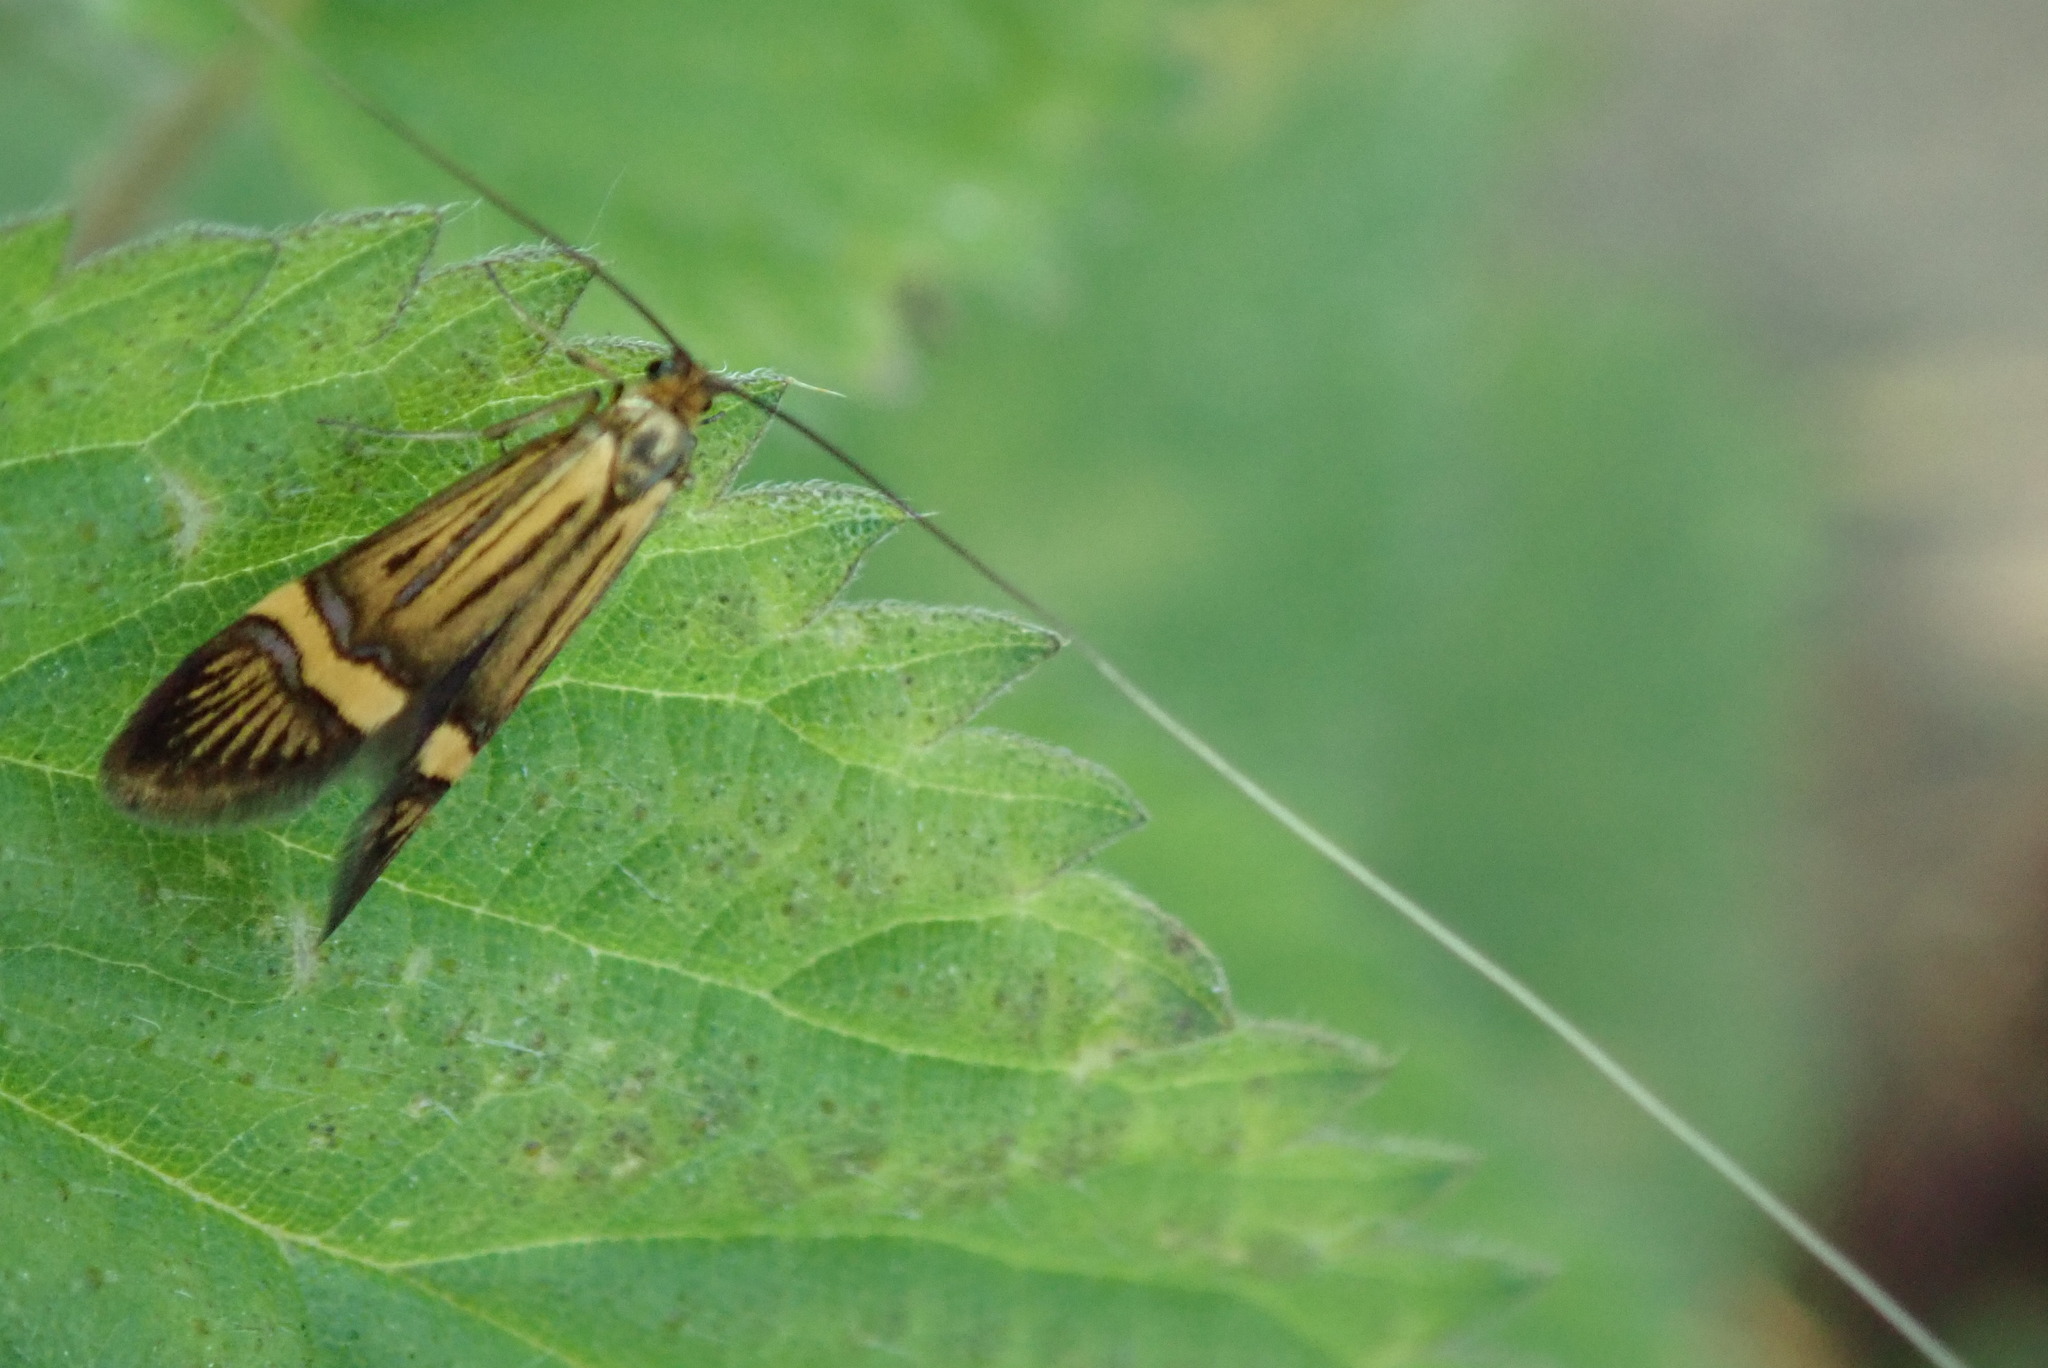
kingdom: Animalia
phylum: Arthropoda
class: Insecta
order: Lepidoptera
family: Adelidae
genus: Nemophora
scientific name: Nemophora degeerella
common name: Yellow-barred long-horn
